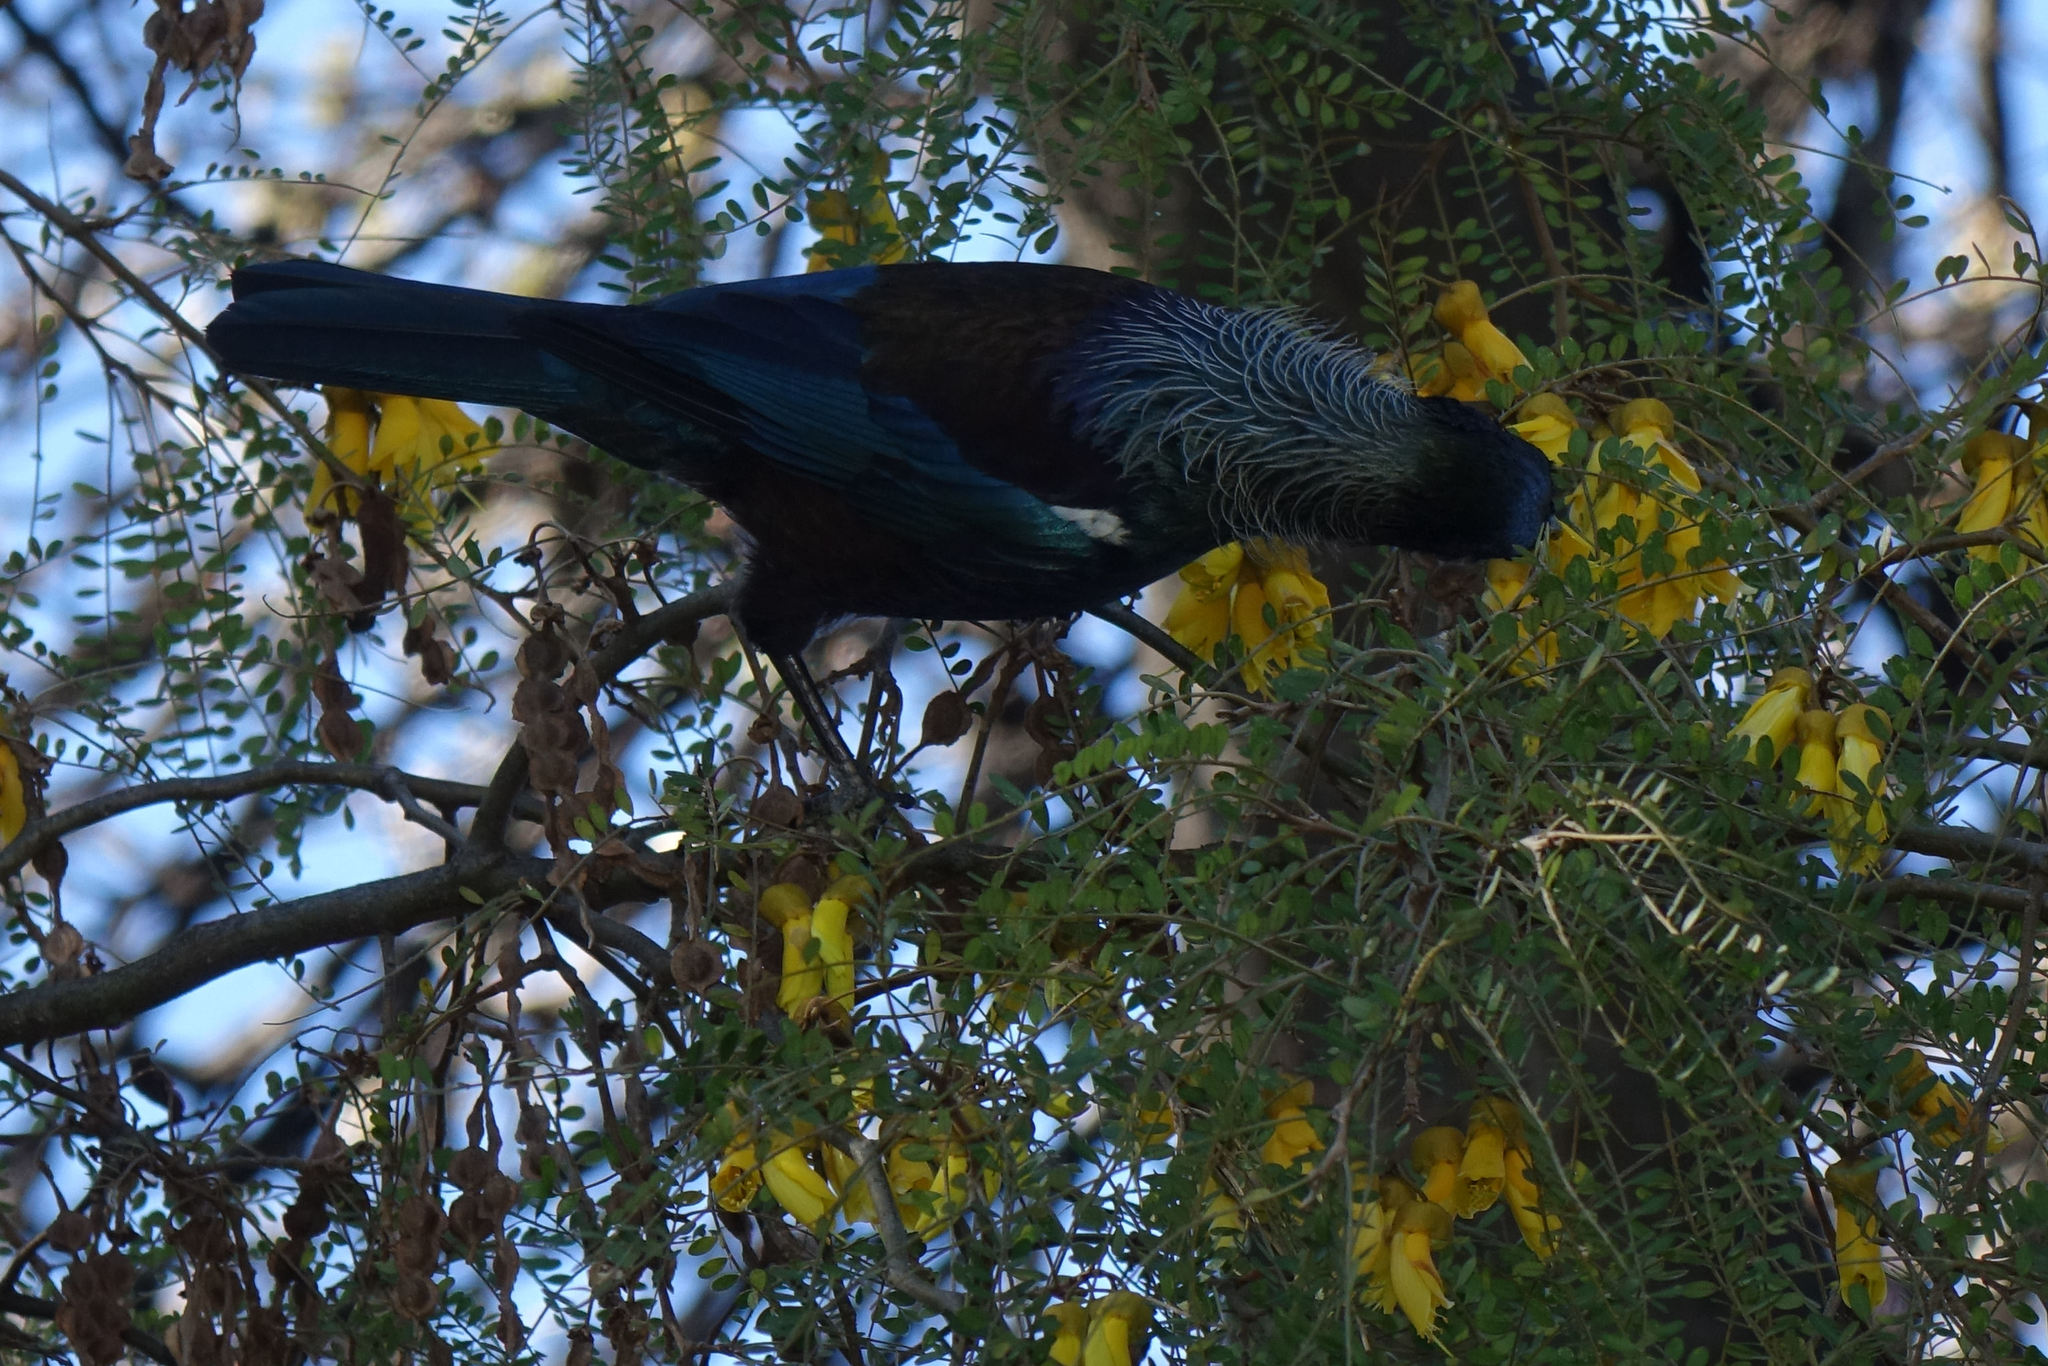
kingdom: Animalia
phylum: Chordata
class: Aves
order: Passeriformes
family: Meliphagidae
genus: Prosthemadera
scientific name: Prosthemadera novaeseelandiae
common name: Tui
